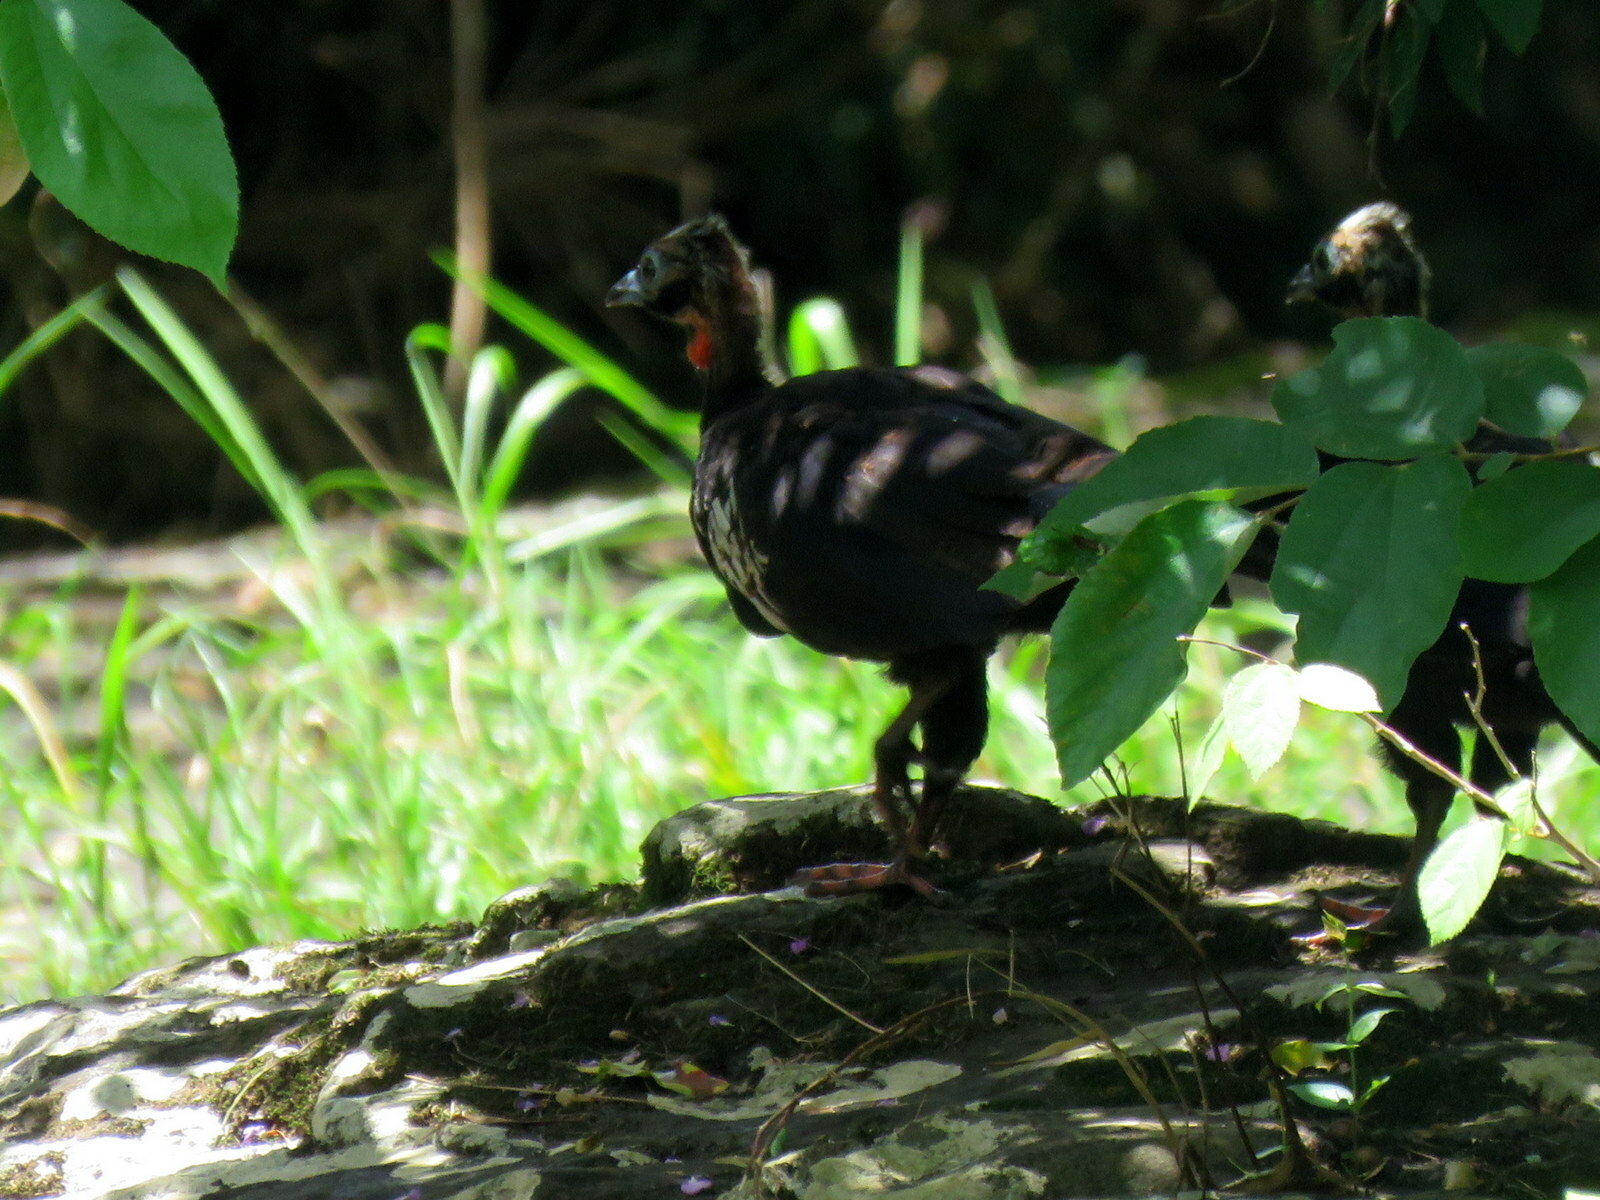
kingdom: Animalia
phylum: Chordata
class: Aves
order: Galliformes
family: Cracidae
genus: Pipile
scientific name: Pipile jacutinga
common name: Black-fronted piping-guan
